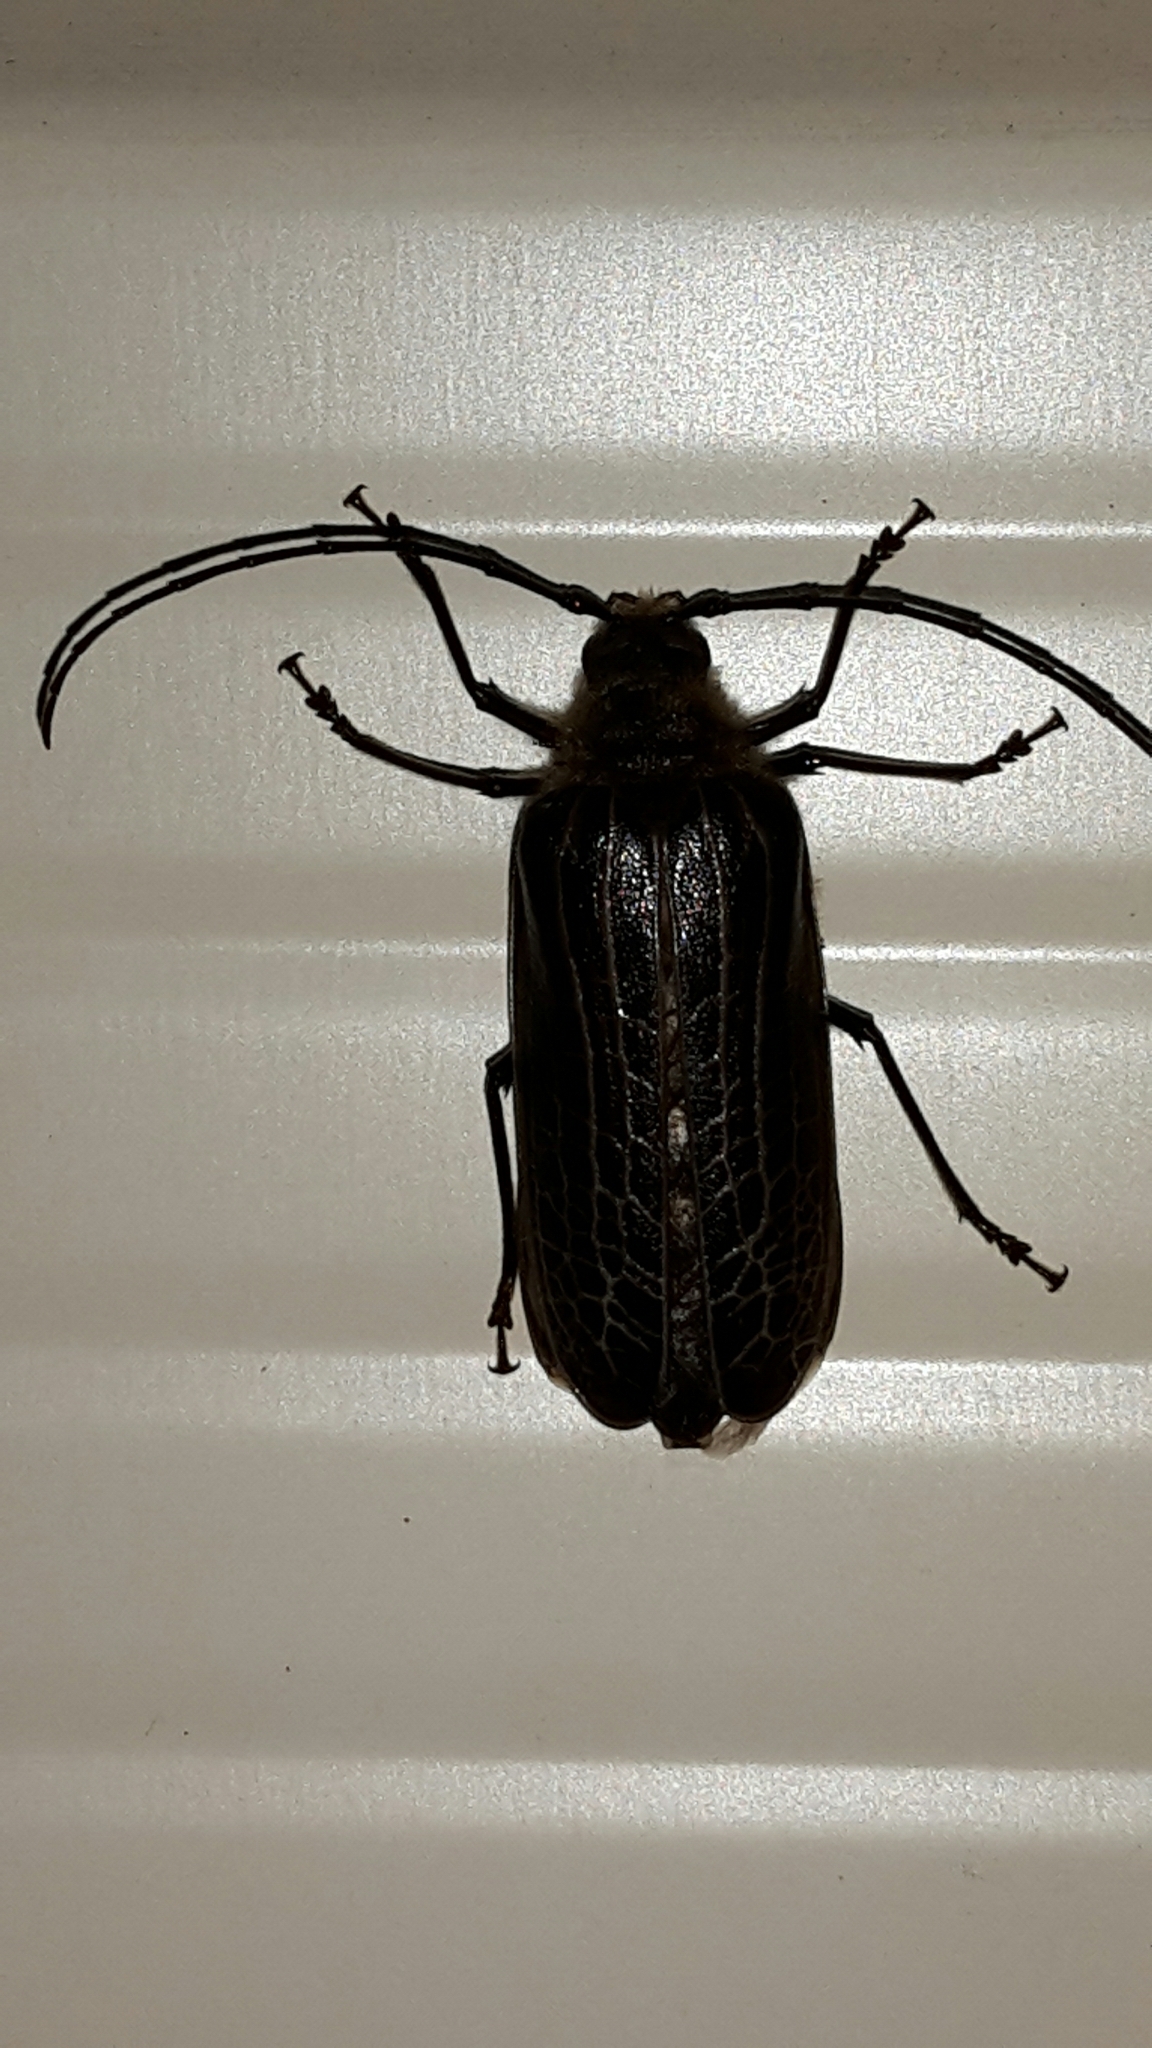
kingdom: Animalia
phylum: Arthropoda
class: Insecta
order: Coleoptera
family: Cerambycidae
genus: Prionoplus
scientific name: Prionoplus reticularis
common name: Huhu beetle
